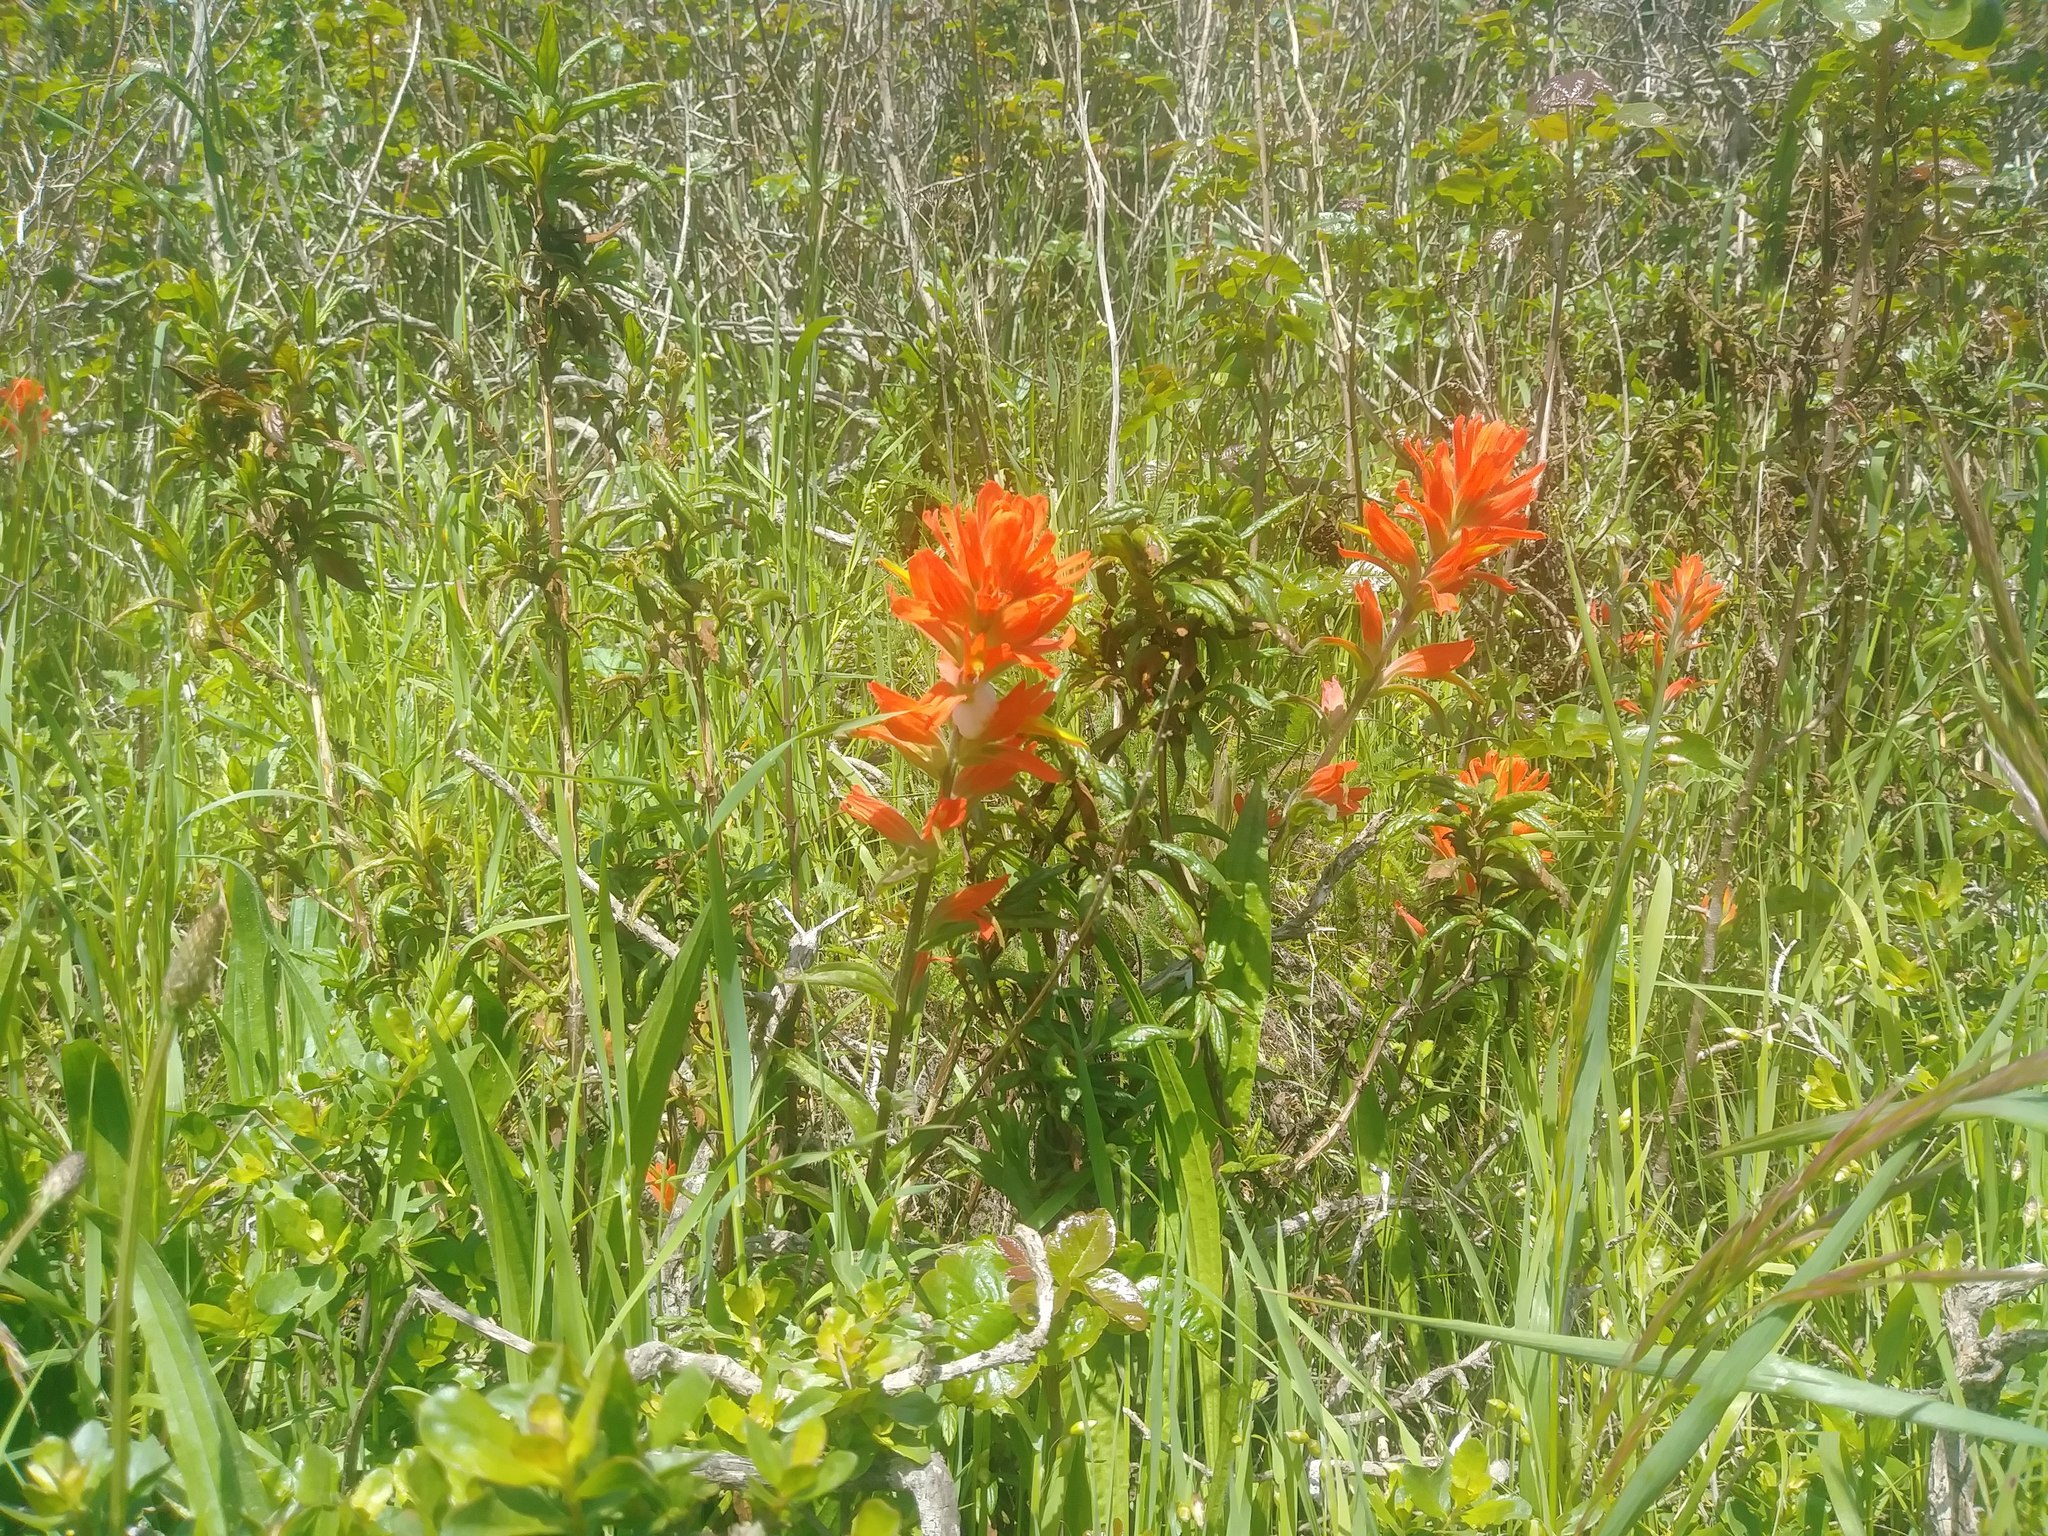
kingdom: Plantae
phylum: Tracheophyta
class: Magnoliopsida
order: Lamiales
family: Orobanchaceae
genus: Castilleja
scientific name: Castilleja affinis
